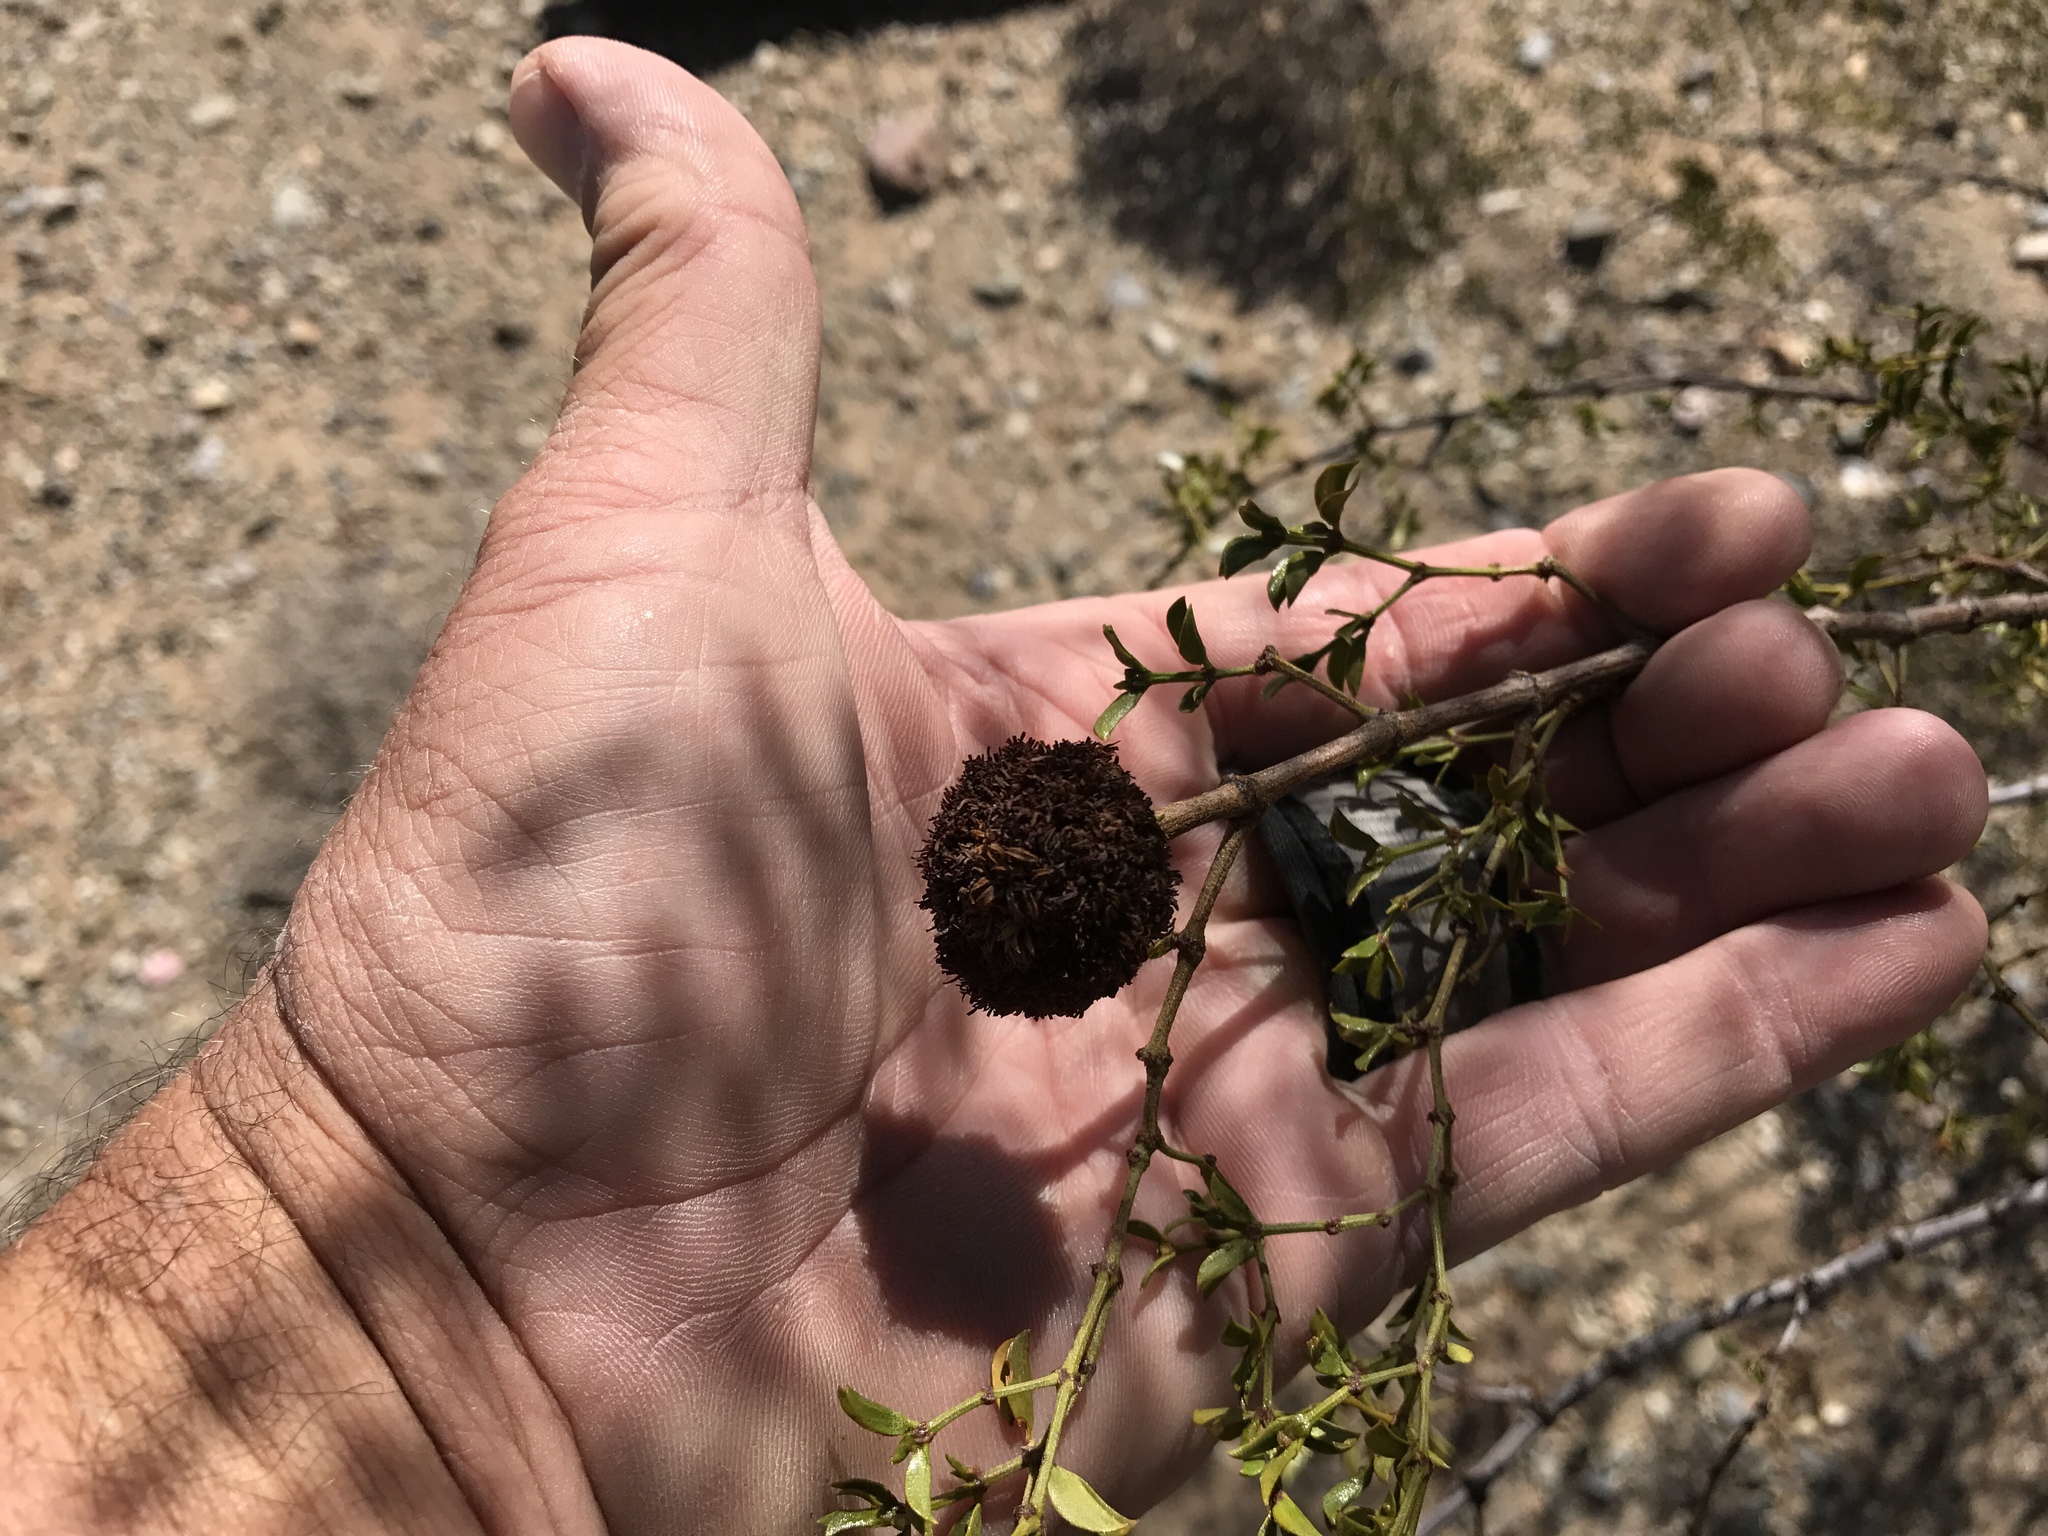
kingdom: Animalia
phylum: Arthropoda
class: Insecta
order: Diptera
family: Cecidomyiidae
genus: Asphondylia
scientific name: Asphondylia auripila
